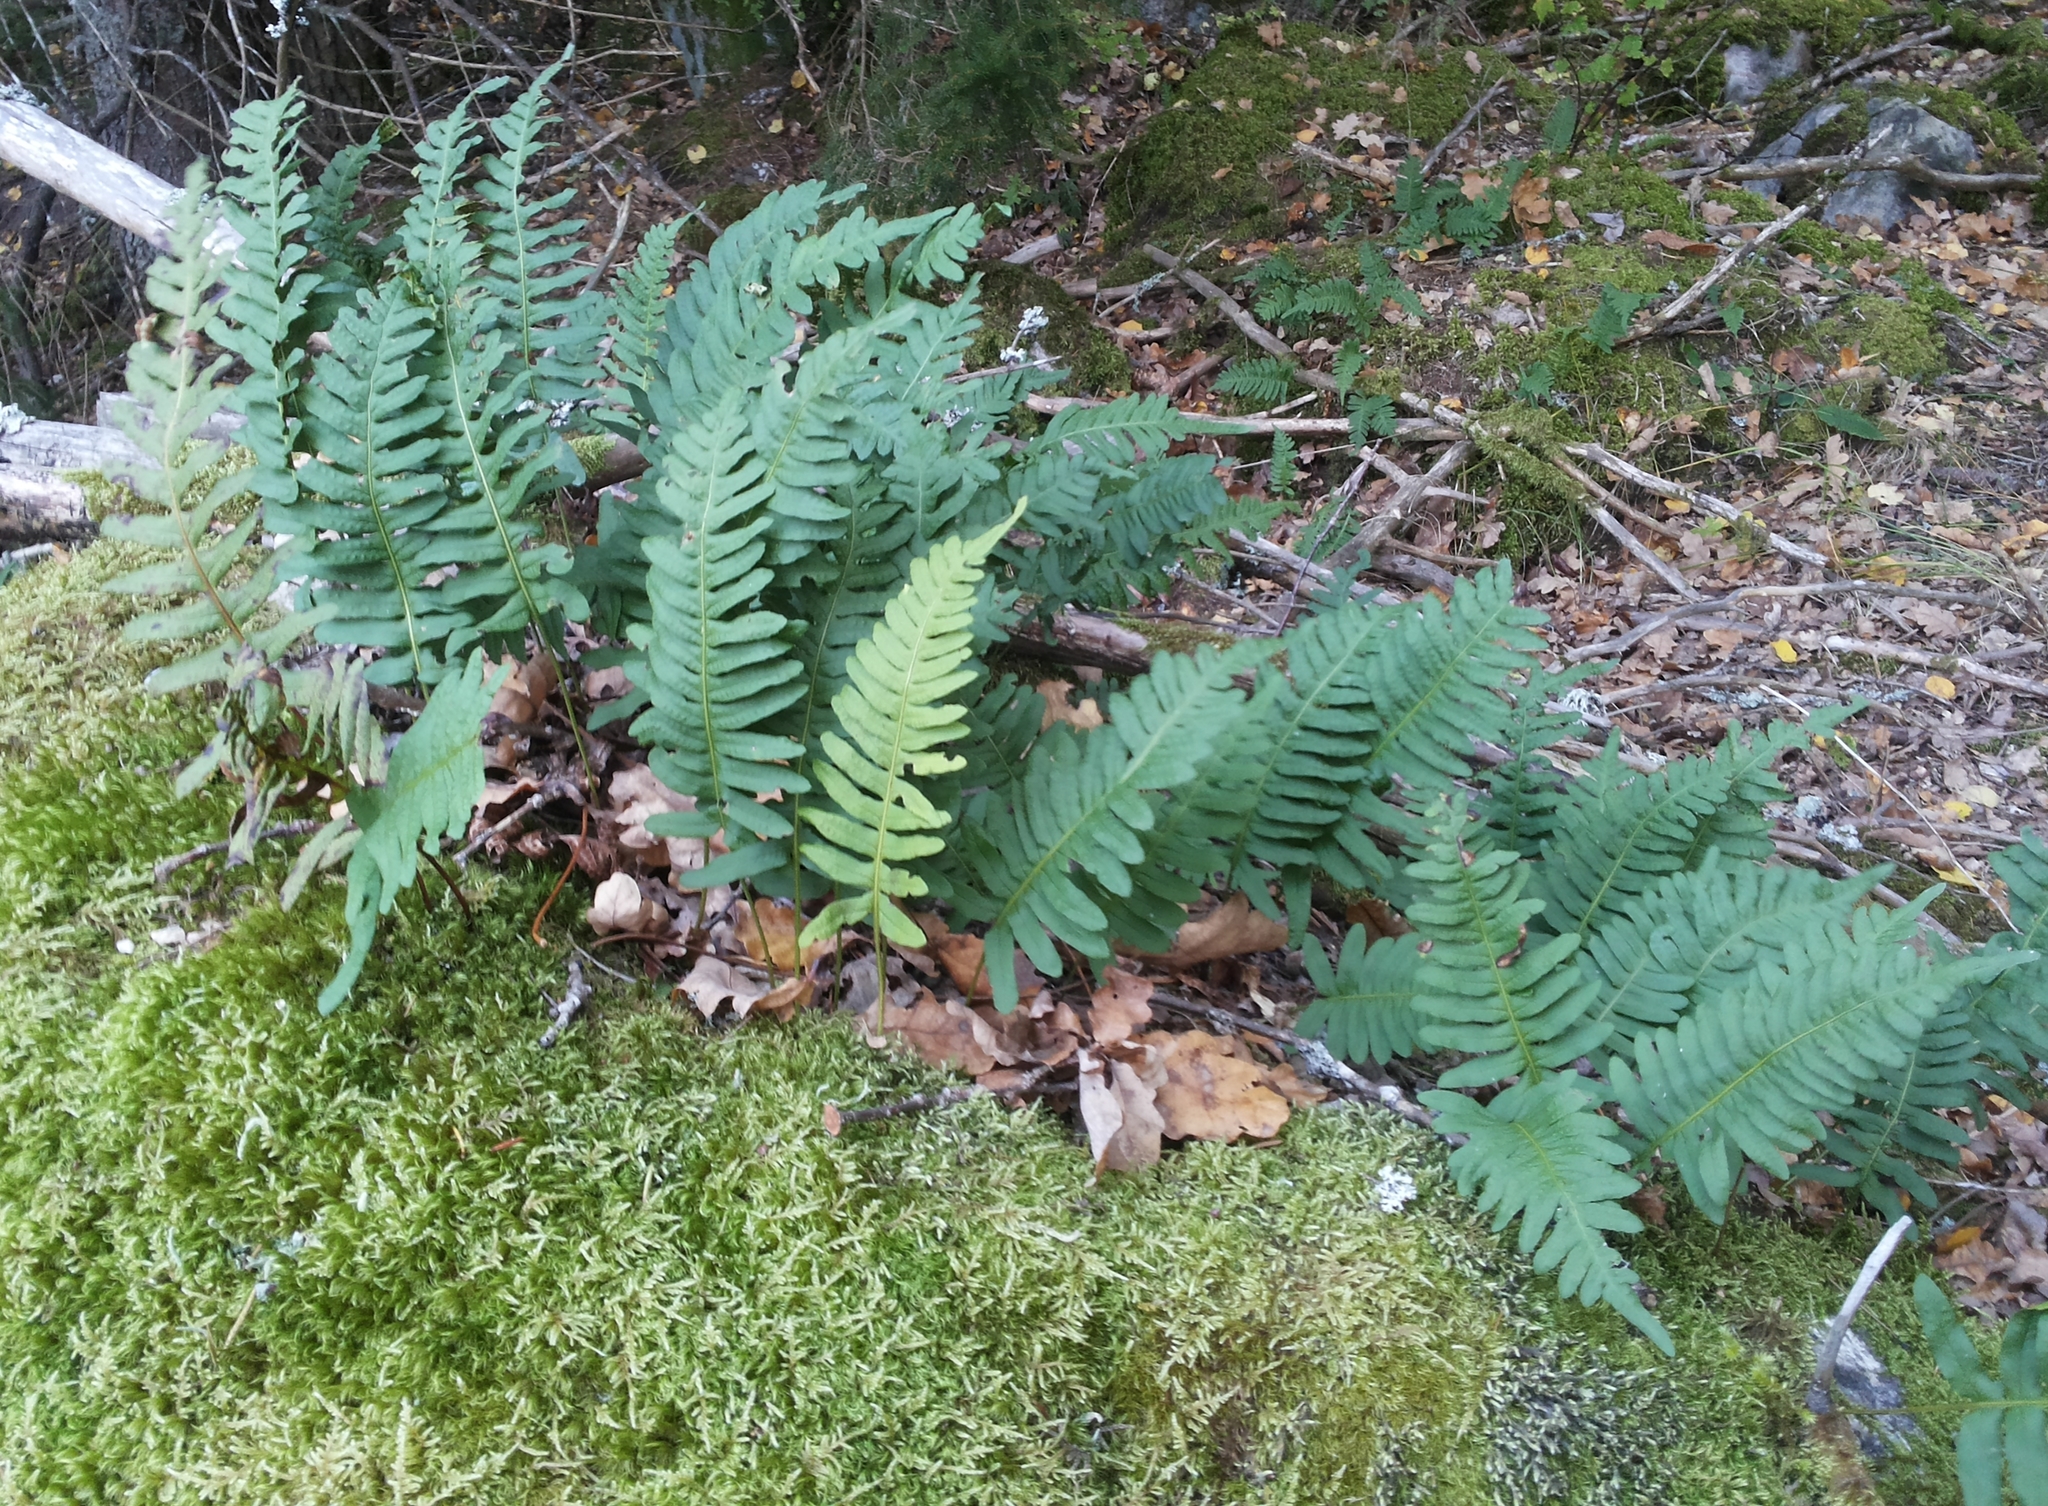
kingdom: Plantae
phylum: Tracheophyta
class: Polypodiopsida
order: Polypodiales
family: Polypodiaceae
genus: Polypodium
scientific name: Polypodium vulgare
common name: Common polypody
